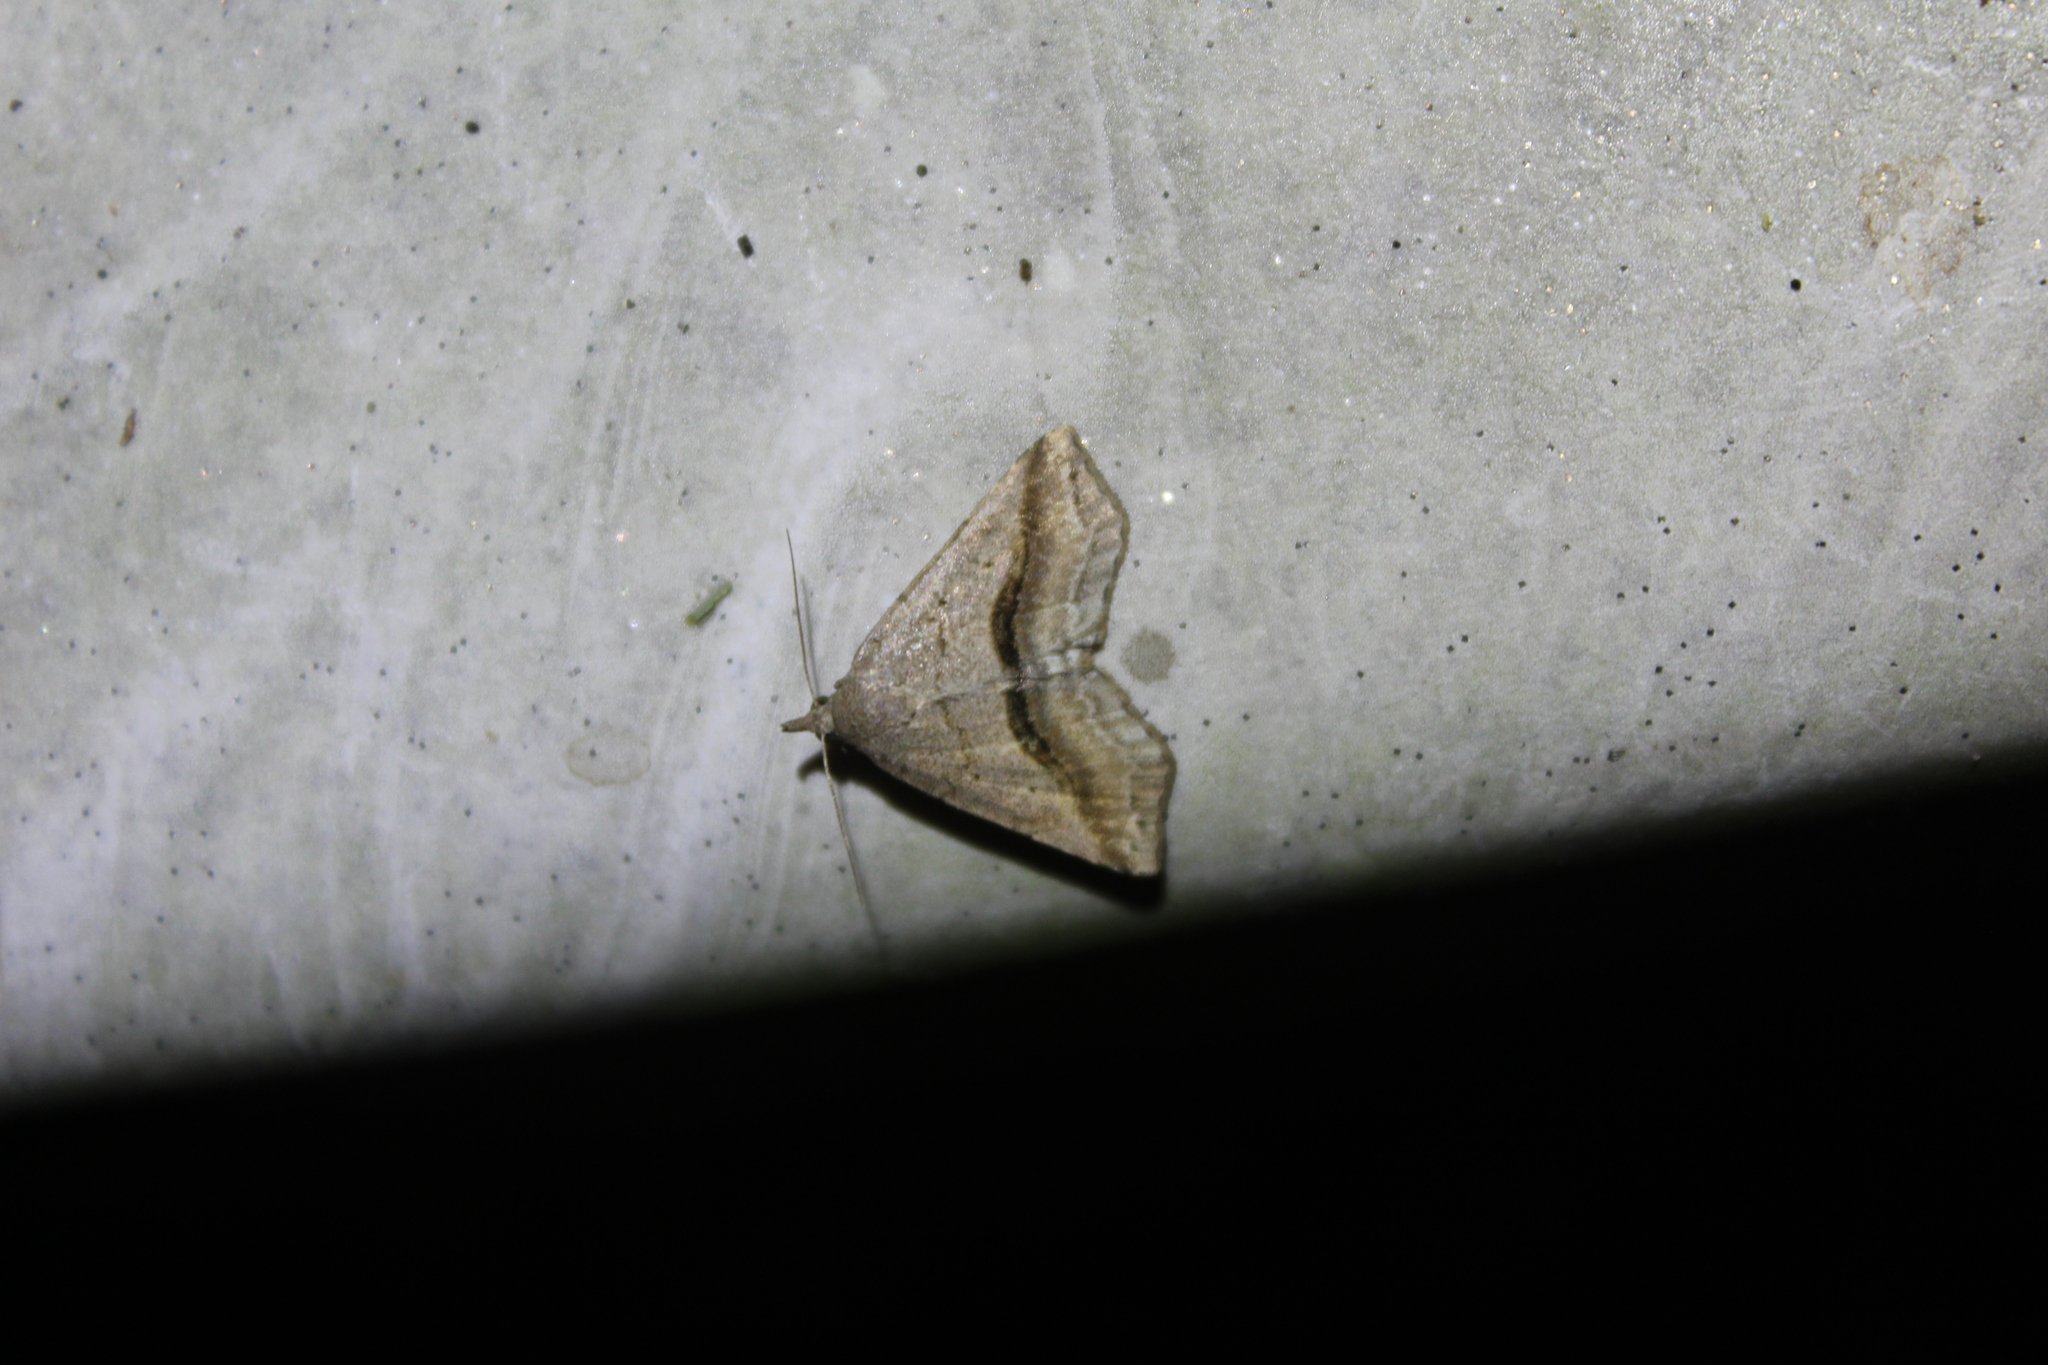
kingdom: Animalia
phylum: Arthropoda
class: Insecta
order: Lepidoptera
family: Erebidae
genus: Spargaloma
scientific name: Spargaloma perditalis
